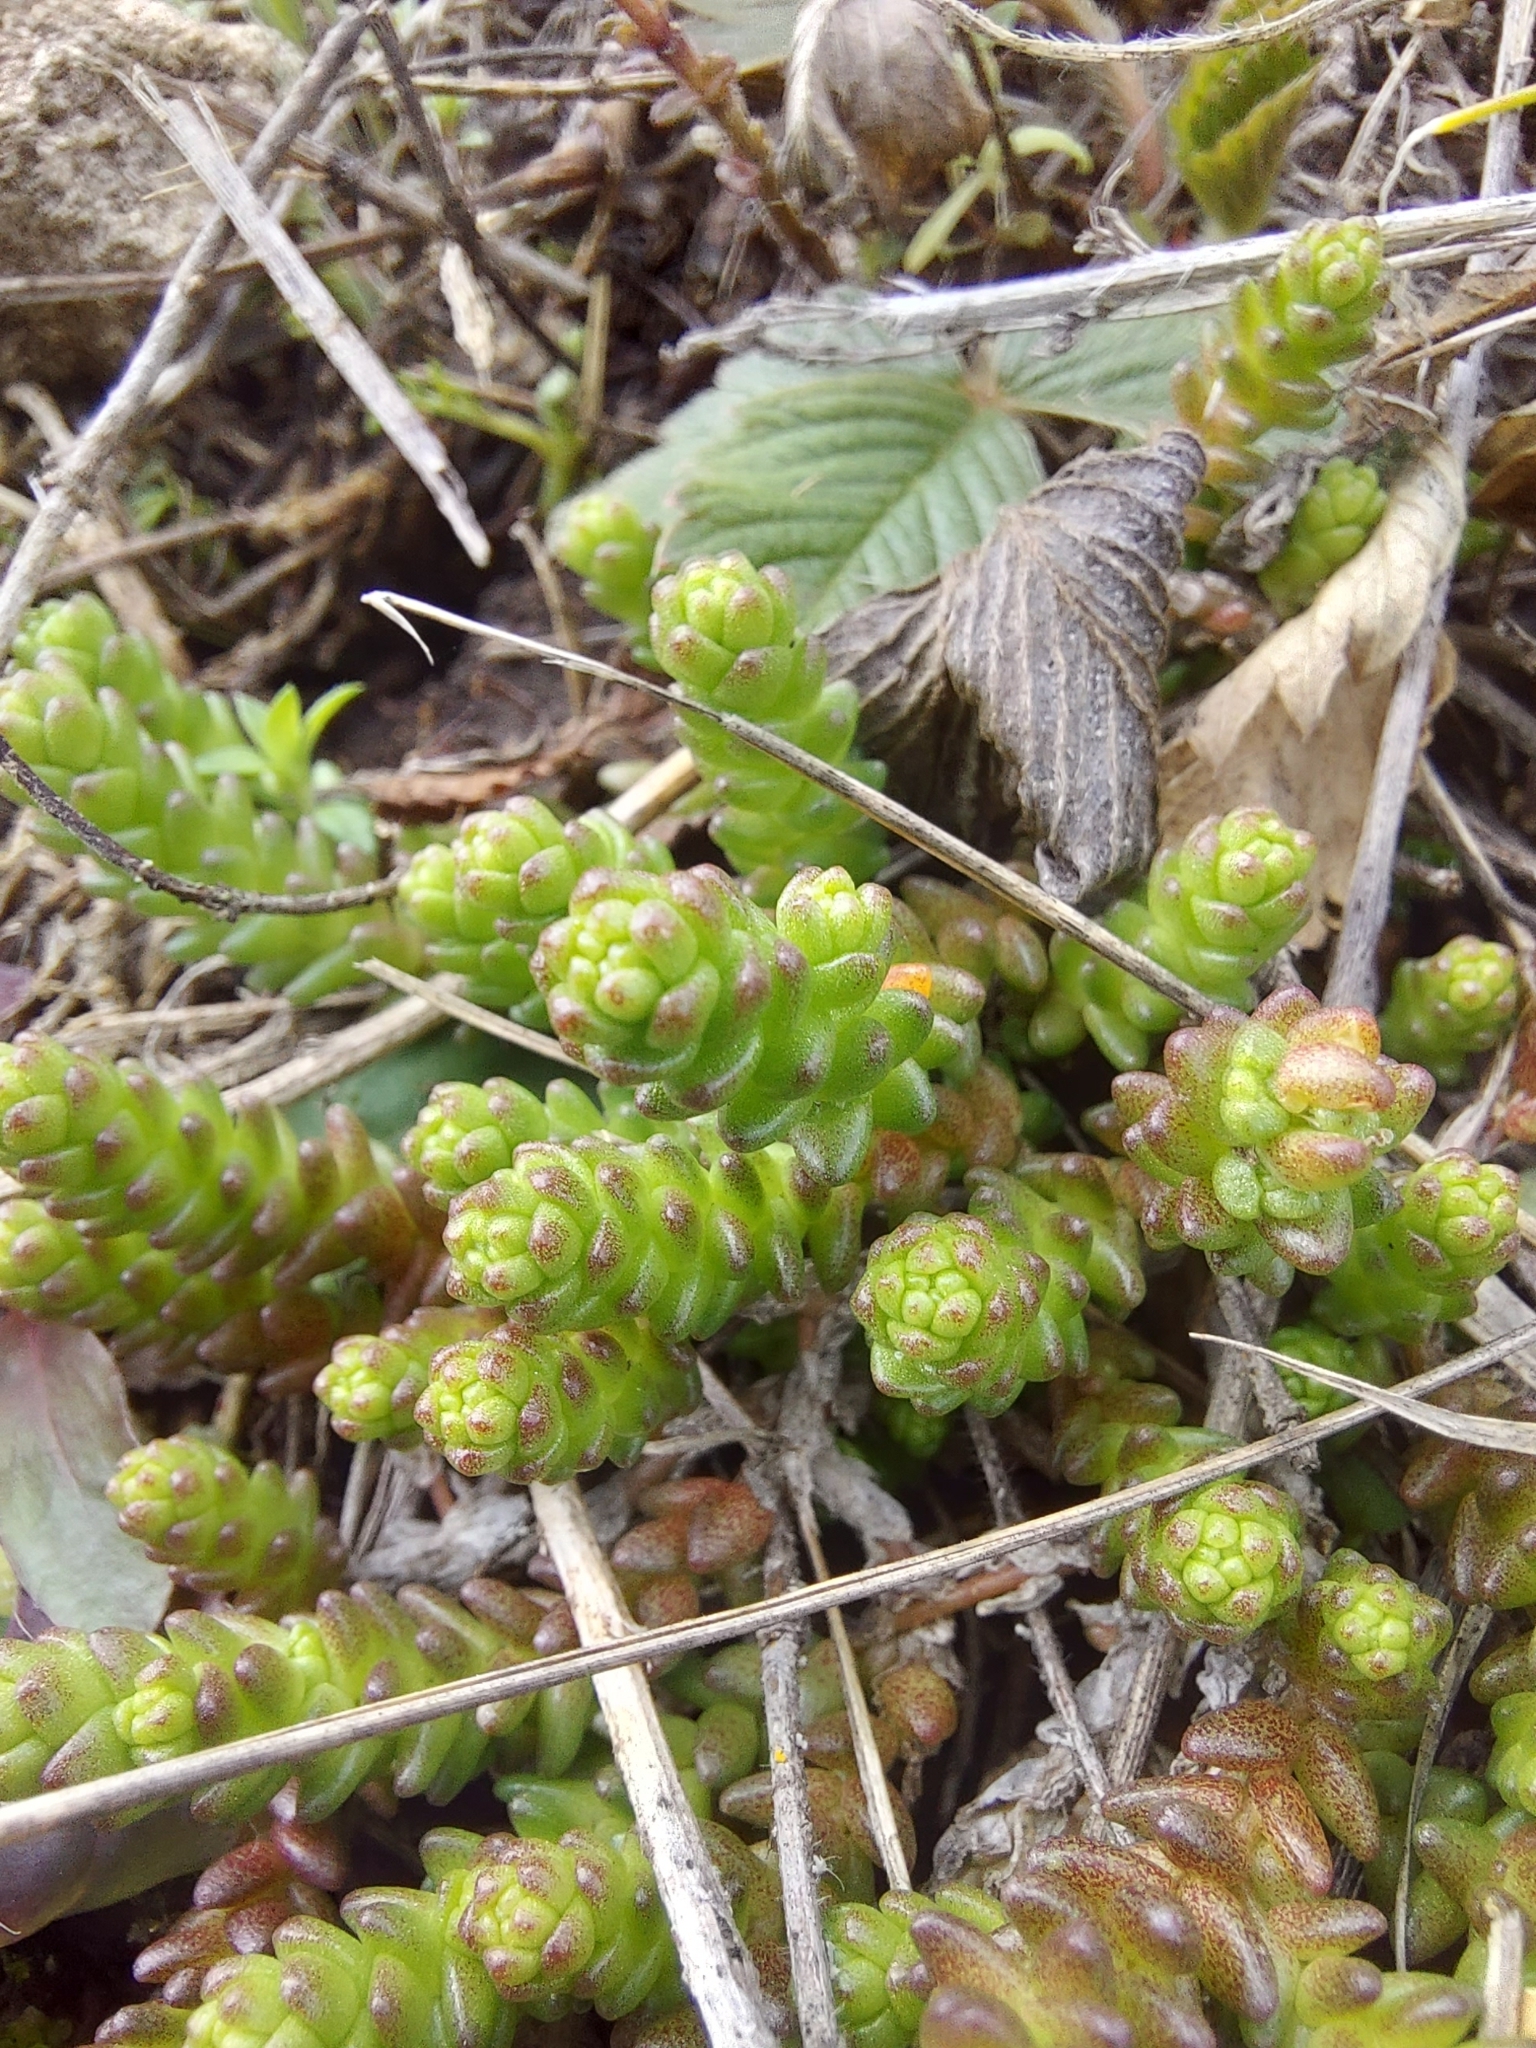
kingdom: Plantae
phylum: Tracheophyta
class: Magnoliopsida
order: Saxifragales
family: Crassulaceae
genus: Sedum
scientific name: Sedum acre
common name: Biting stonecrop
